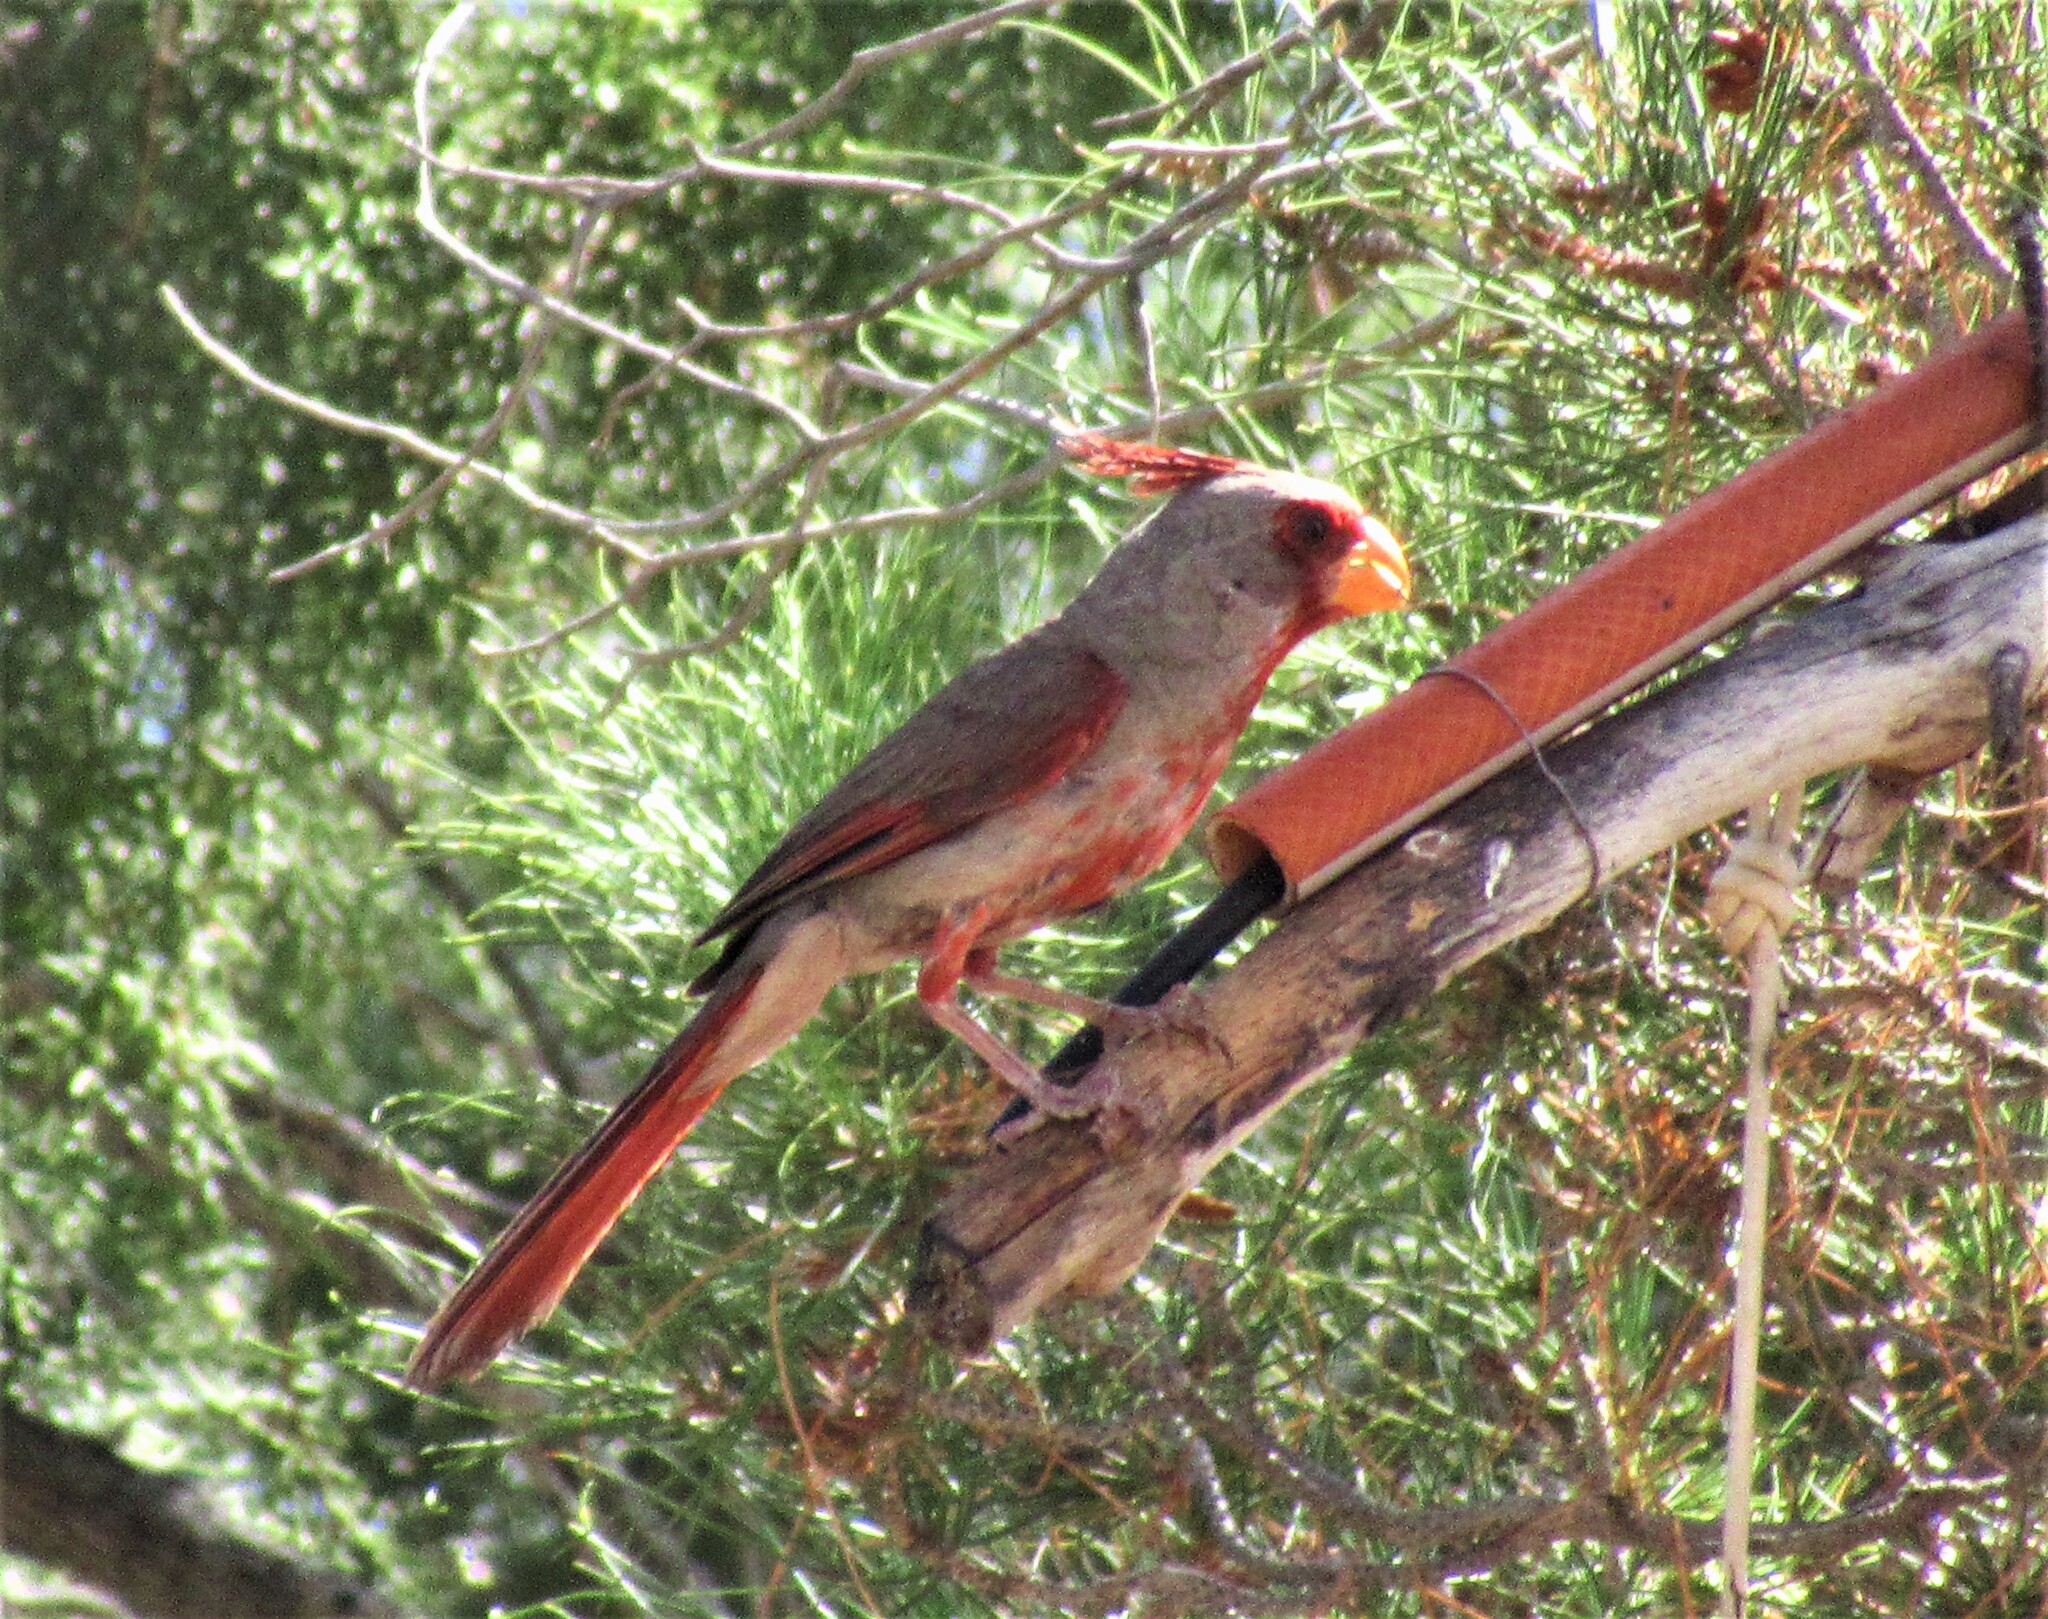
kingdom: Animalia
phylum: Chordata
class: Aves
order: Passeriformes
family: Cardinalidae
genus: Cardinalis
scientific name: Cardinalis sinuatus
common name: Pyrrhuloxia
